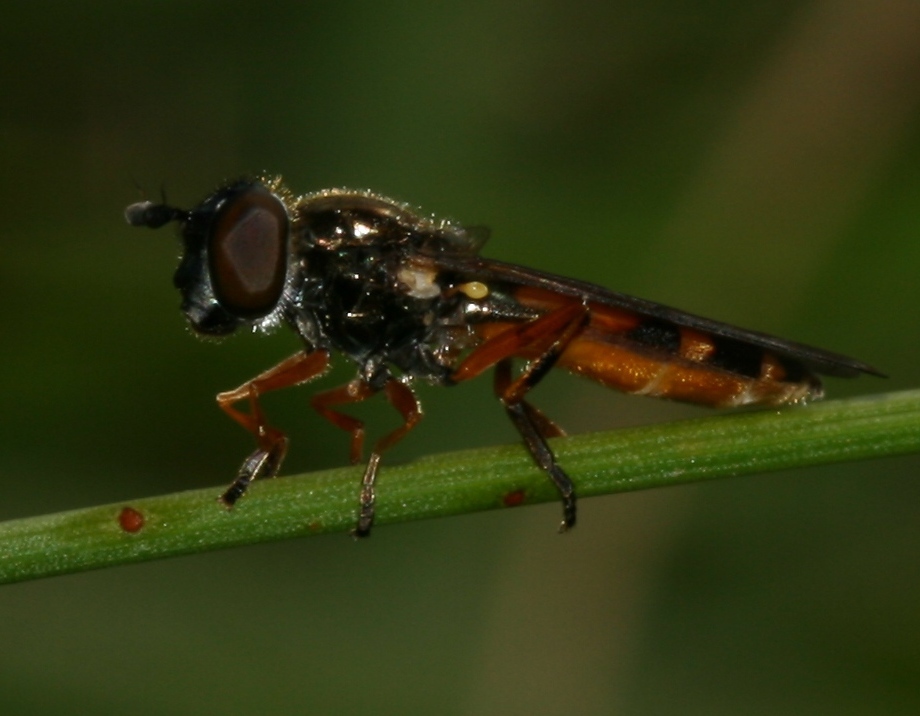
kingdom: Animalia
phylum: Arthropoda
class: Insecta
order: Diptera
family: Syrphidae
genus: Pyrophaena
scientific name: Pyrophaena granditarsa
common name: Hornhand sedgesitter
